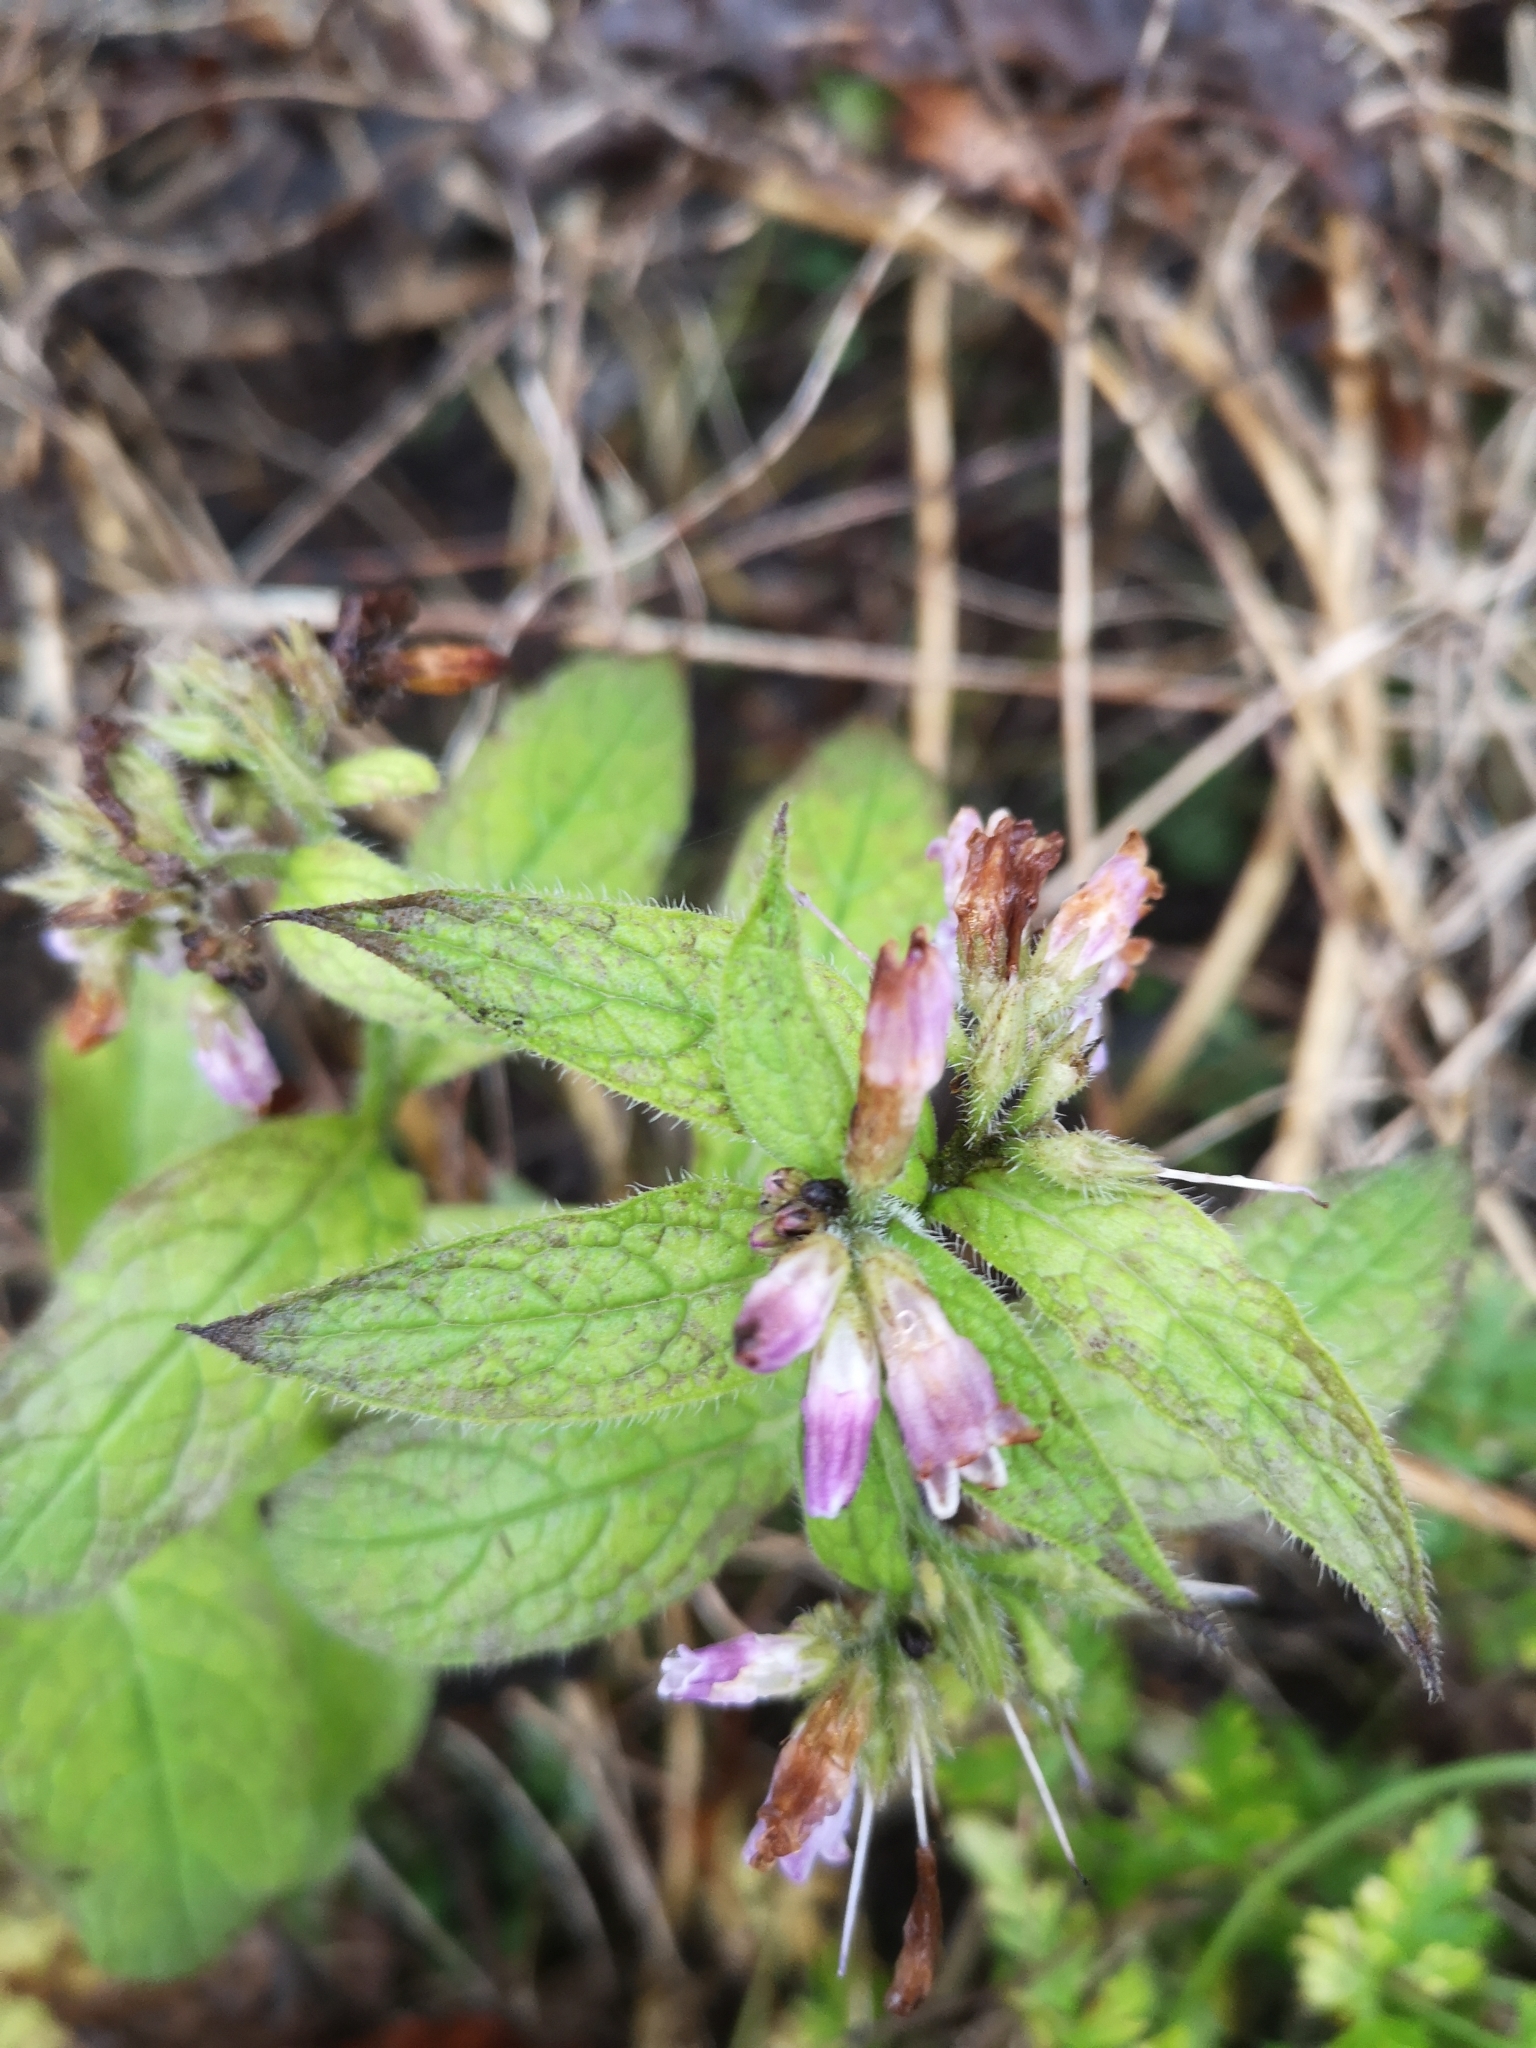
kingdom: Plantae
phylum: Tracheophyta
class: Magnoliopsida
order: Boraginales
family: Boraginaceae
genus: Symphytum
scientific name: Symphytum officinale
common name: Common comfrey
